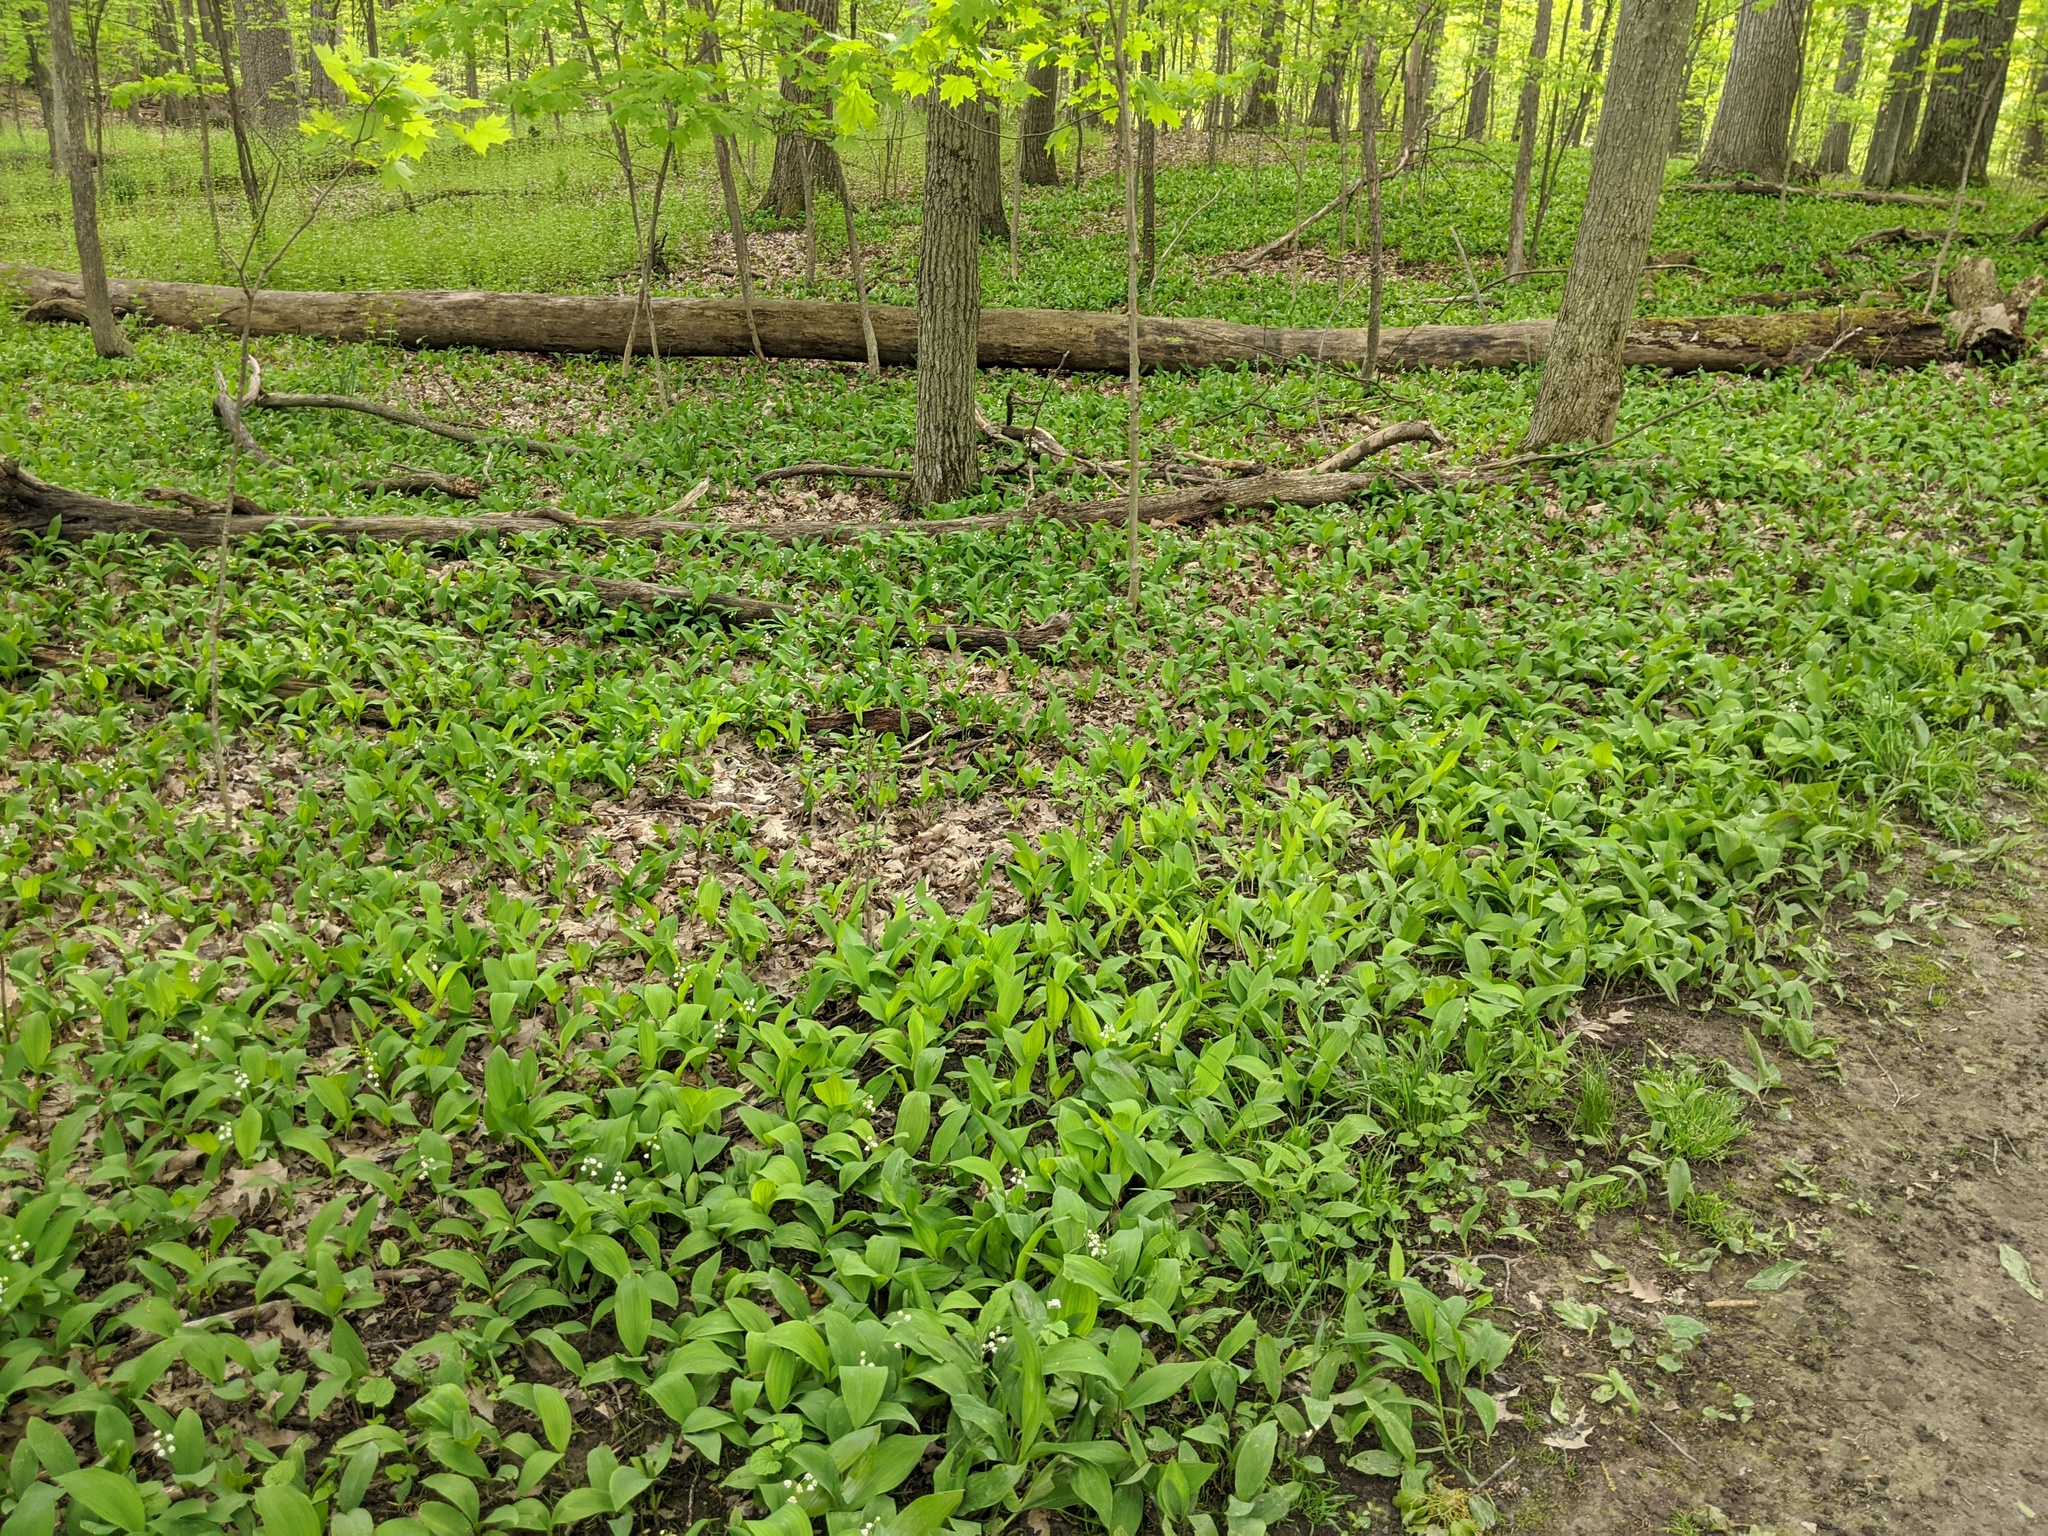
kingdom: Plantae
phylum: Tracheophyta
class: Liliopsida
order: Asparagales
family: Asparagaceae
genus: Convallaria
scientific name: Convallaria majalis
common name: Lily-of-the-valley
